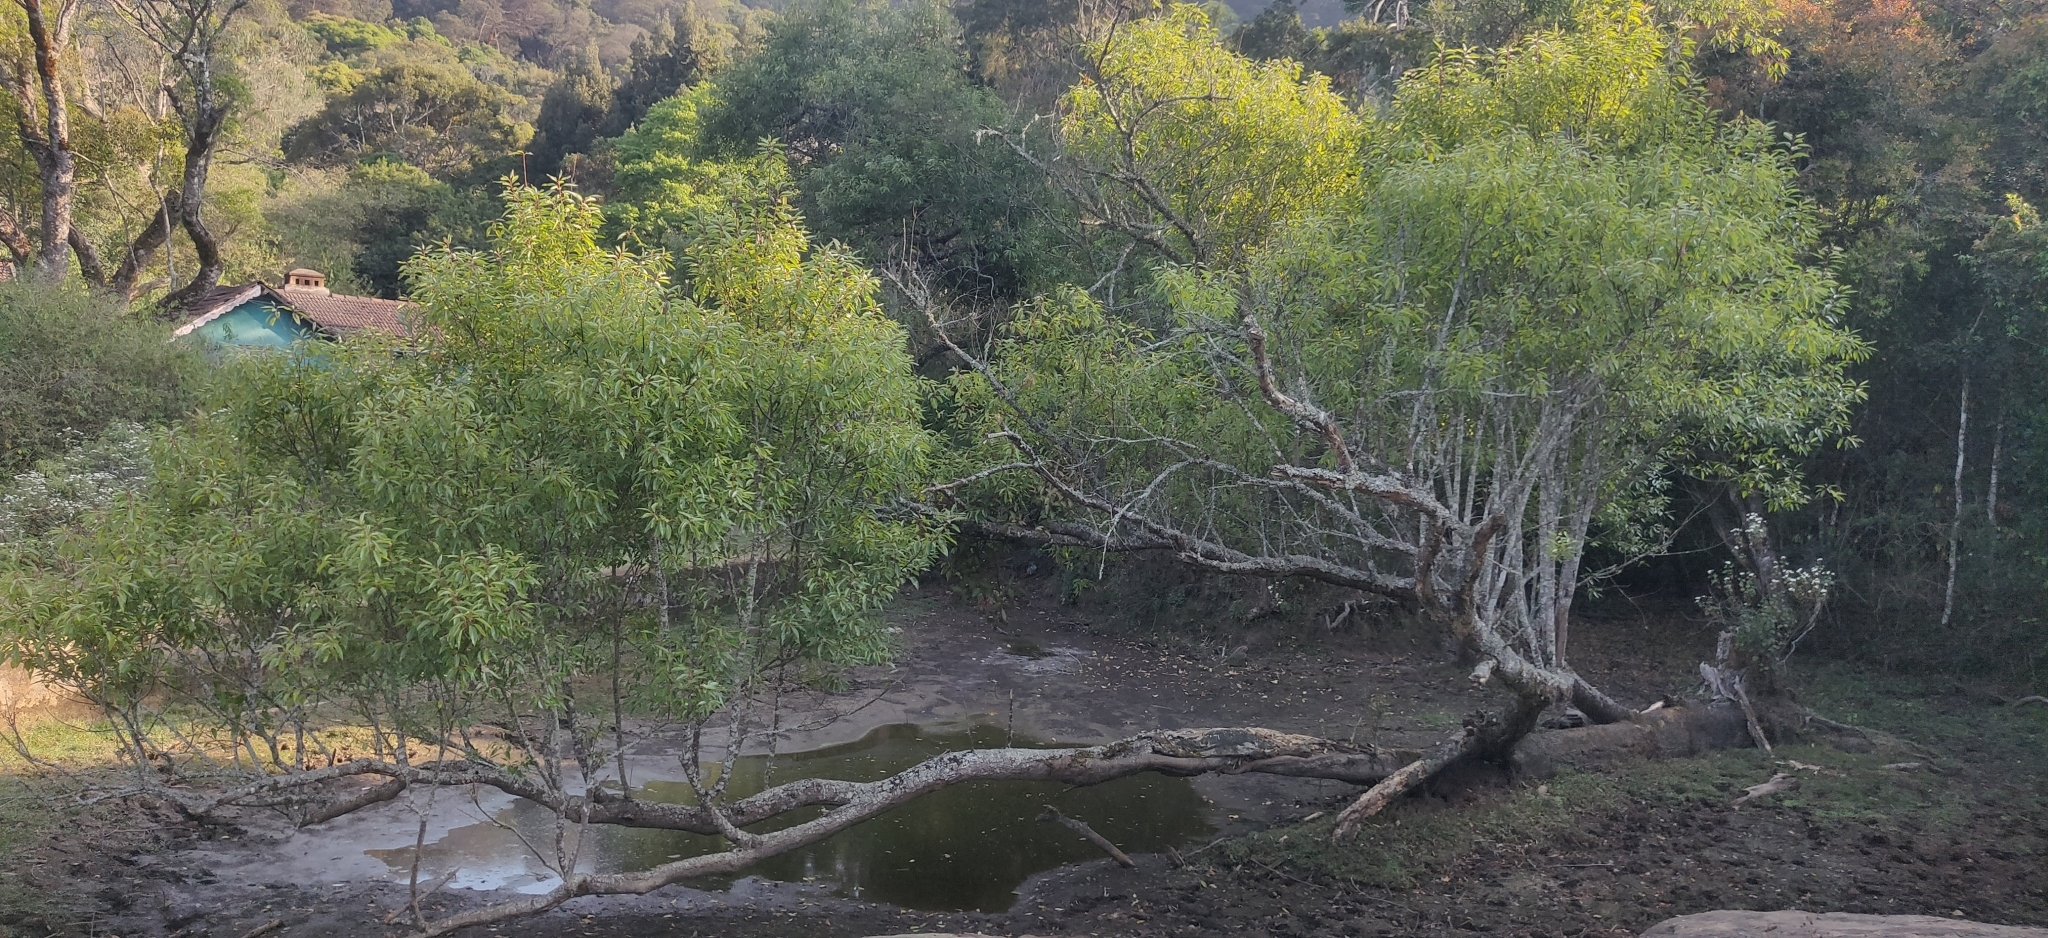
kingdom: Plantae
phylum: Tracheophyta
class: Magnoliopsida
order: Malpighiales
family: Salicaceae
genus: Salix
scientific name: Salix tetrasperma
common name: Indian willow
